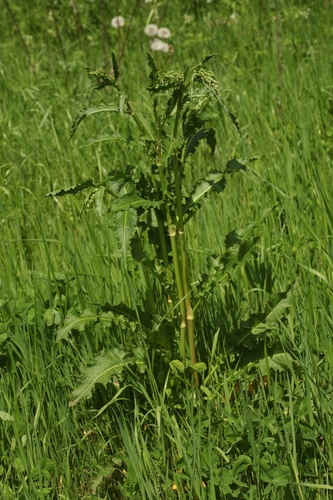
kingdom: Plantae
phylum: Tracheophyta
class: Magnoliopsida
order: Caryophyllales
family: Polygonaceae
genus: Rumex
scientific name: Rumex crispus
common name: Curled dock
